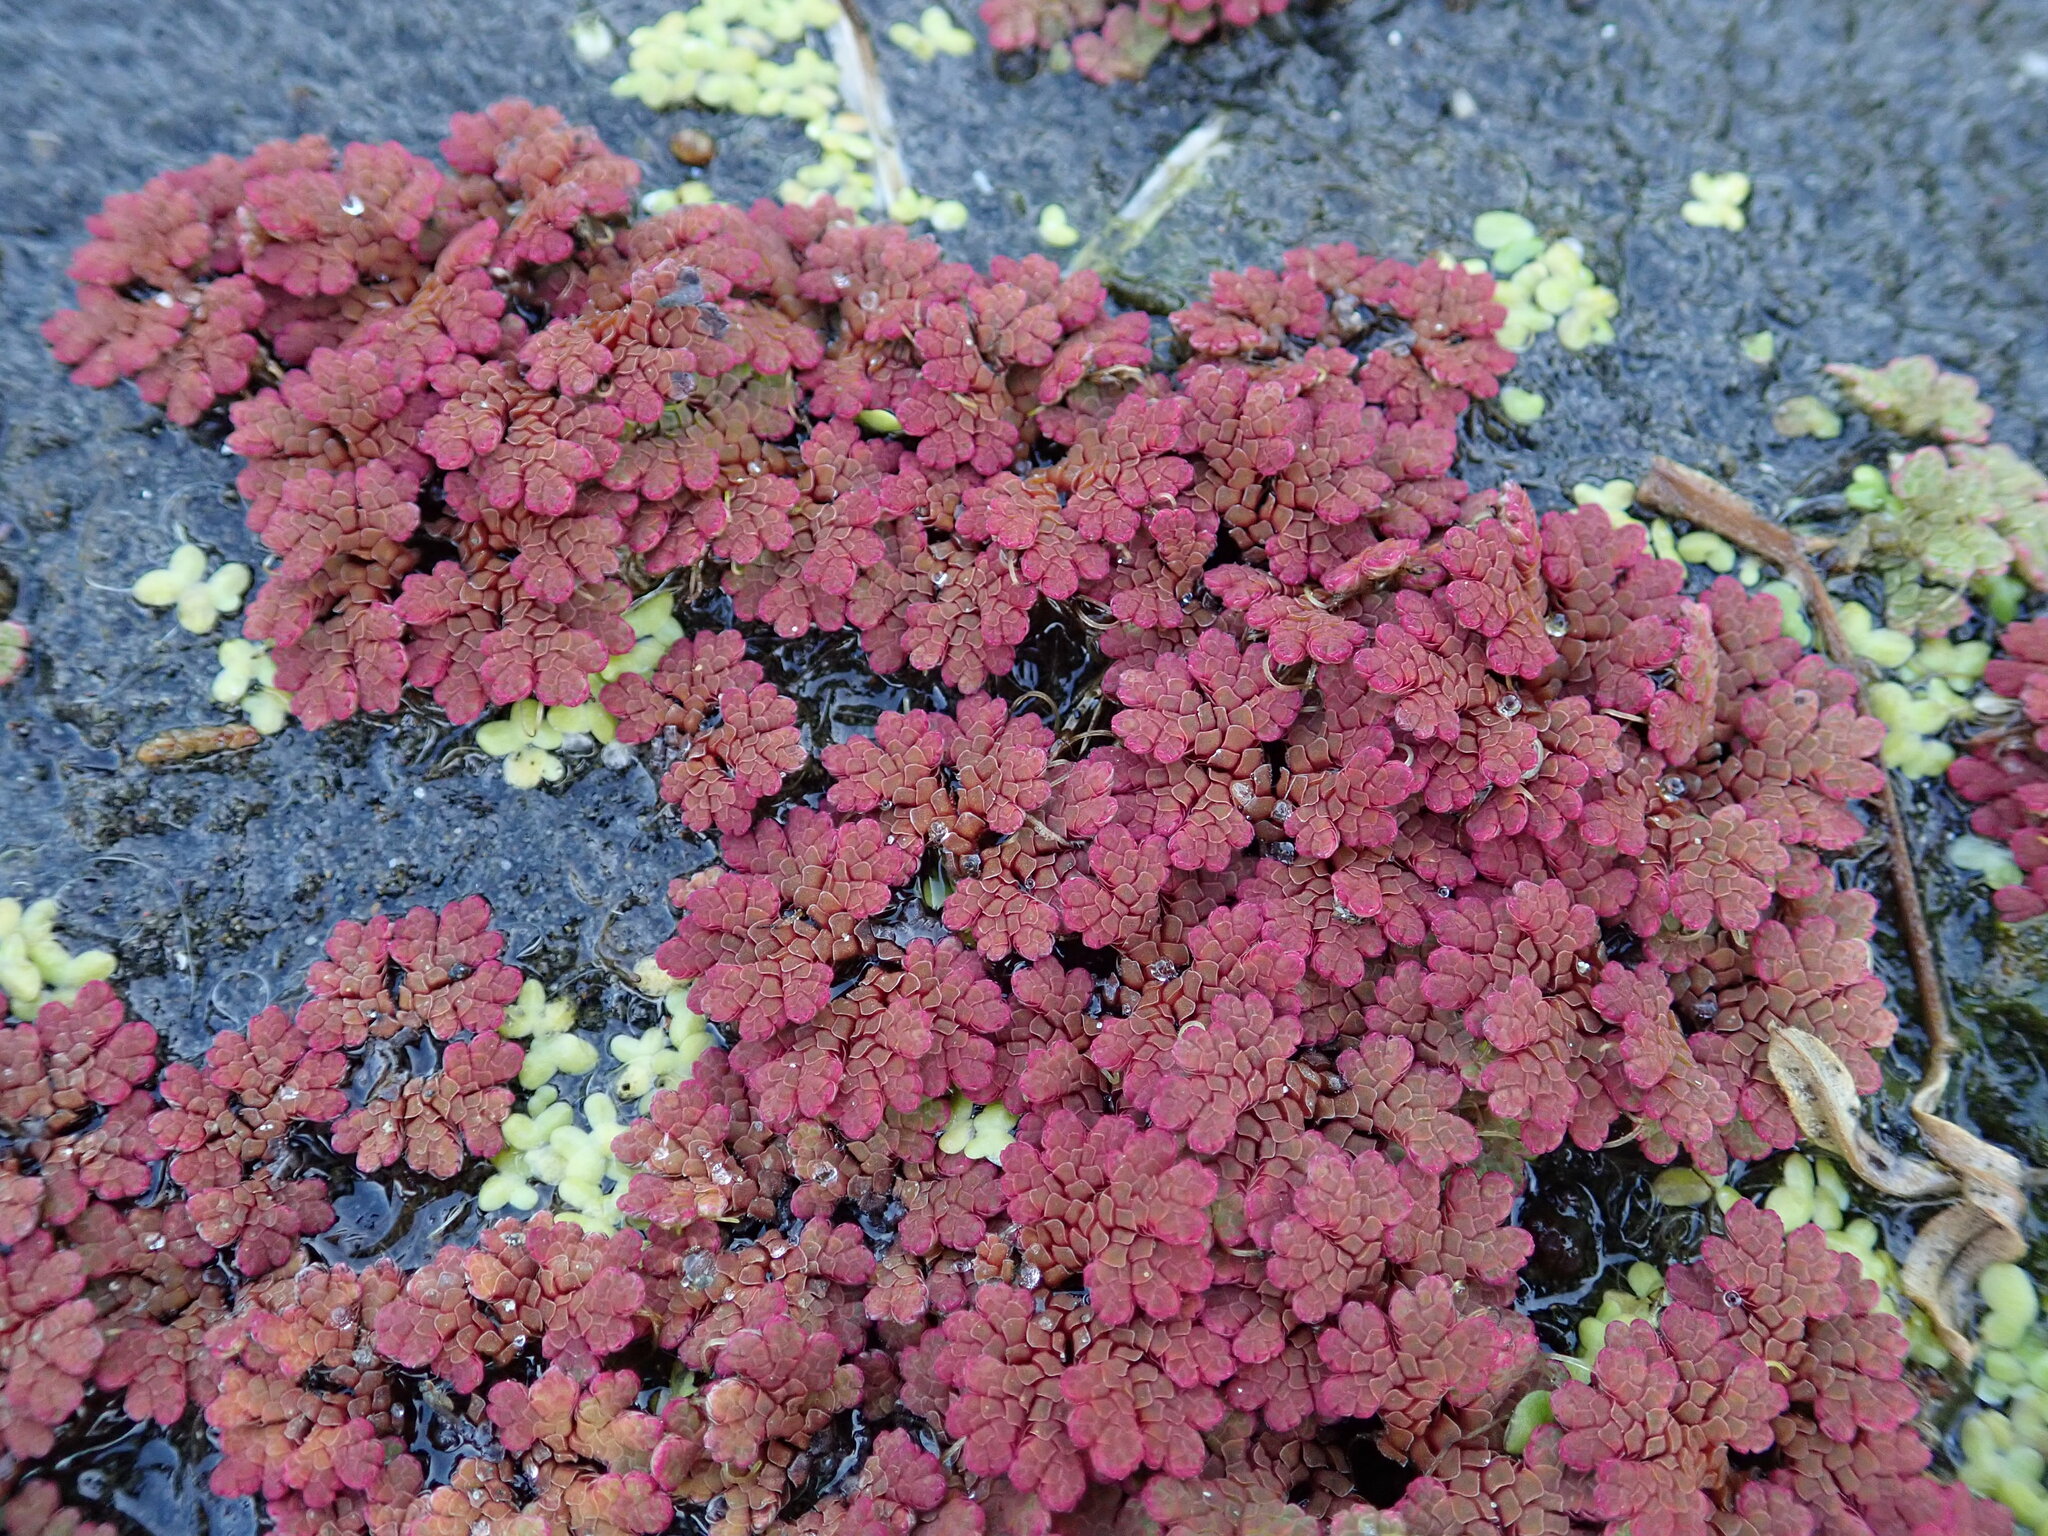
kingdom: Plantae
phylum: Tracheophyta
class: Polypodiopsida
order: Salviniales
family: Salviniaceae
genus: Azolla
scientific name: Azolla rubra
